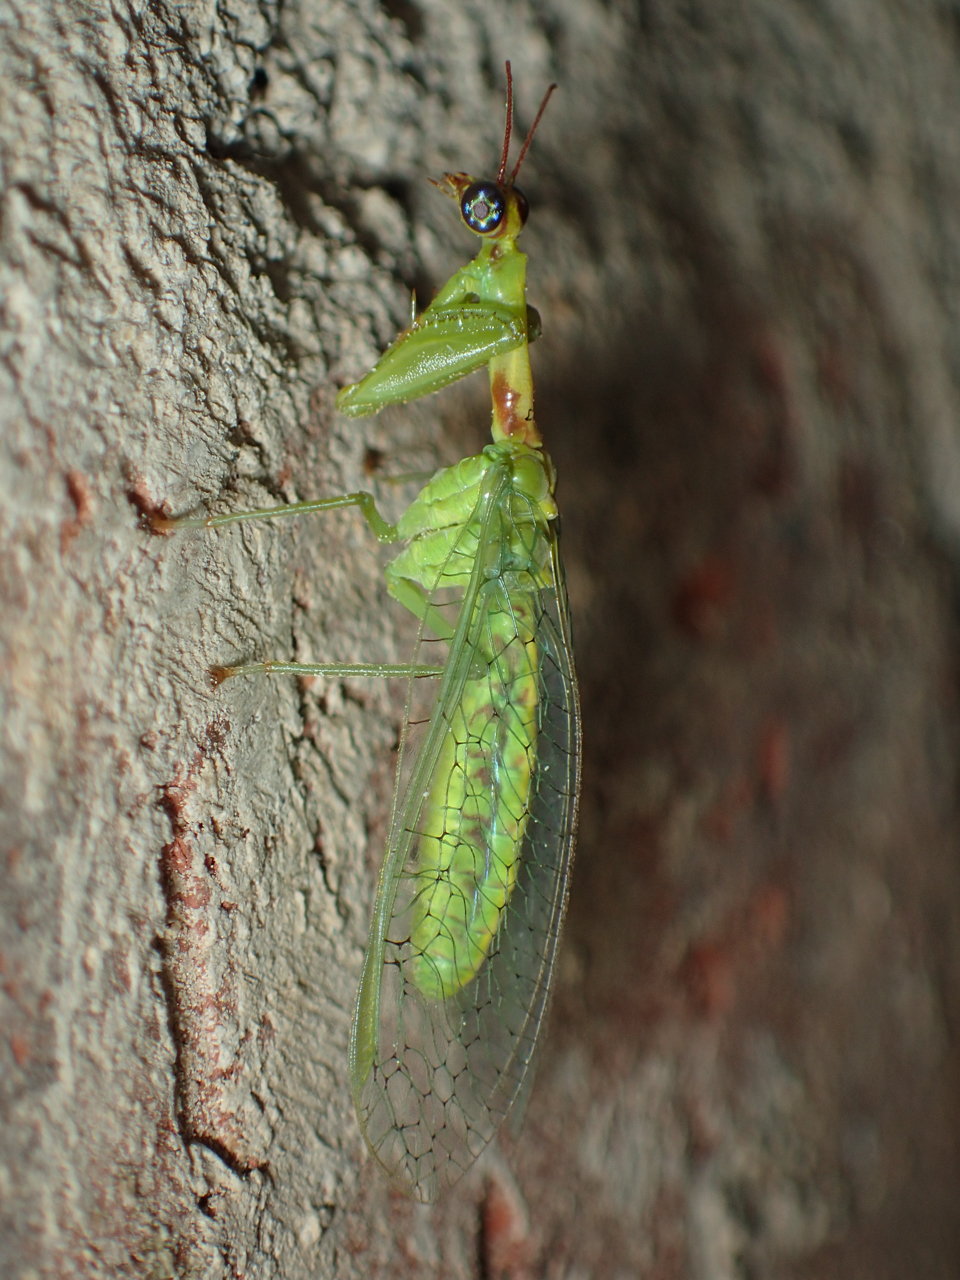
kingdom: Animalia
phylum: Arthropoda
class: Insecta
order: Neuroptera
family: Mantispidae
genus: Zeugomantispa
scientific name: Zeugomantispa minuta
